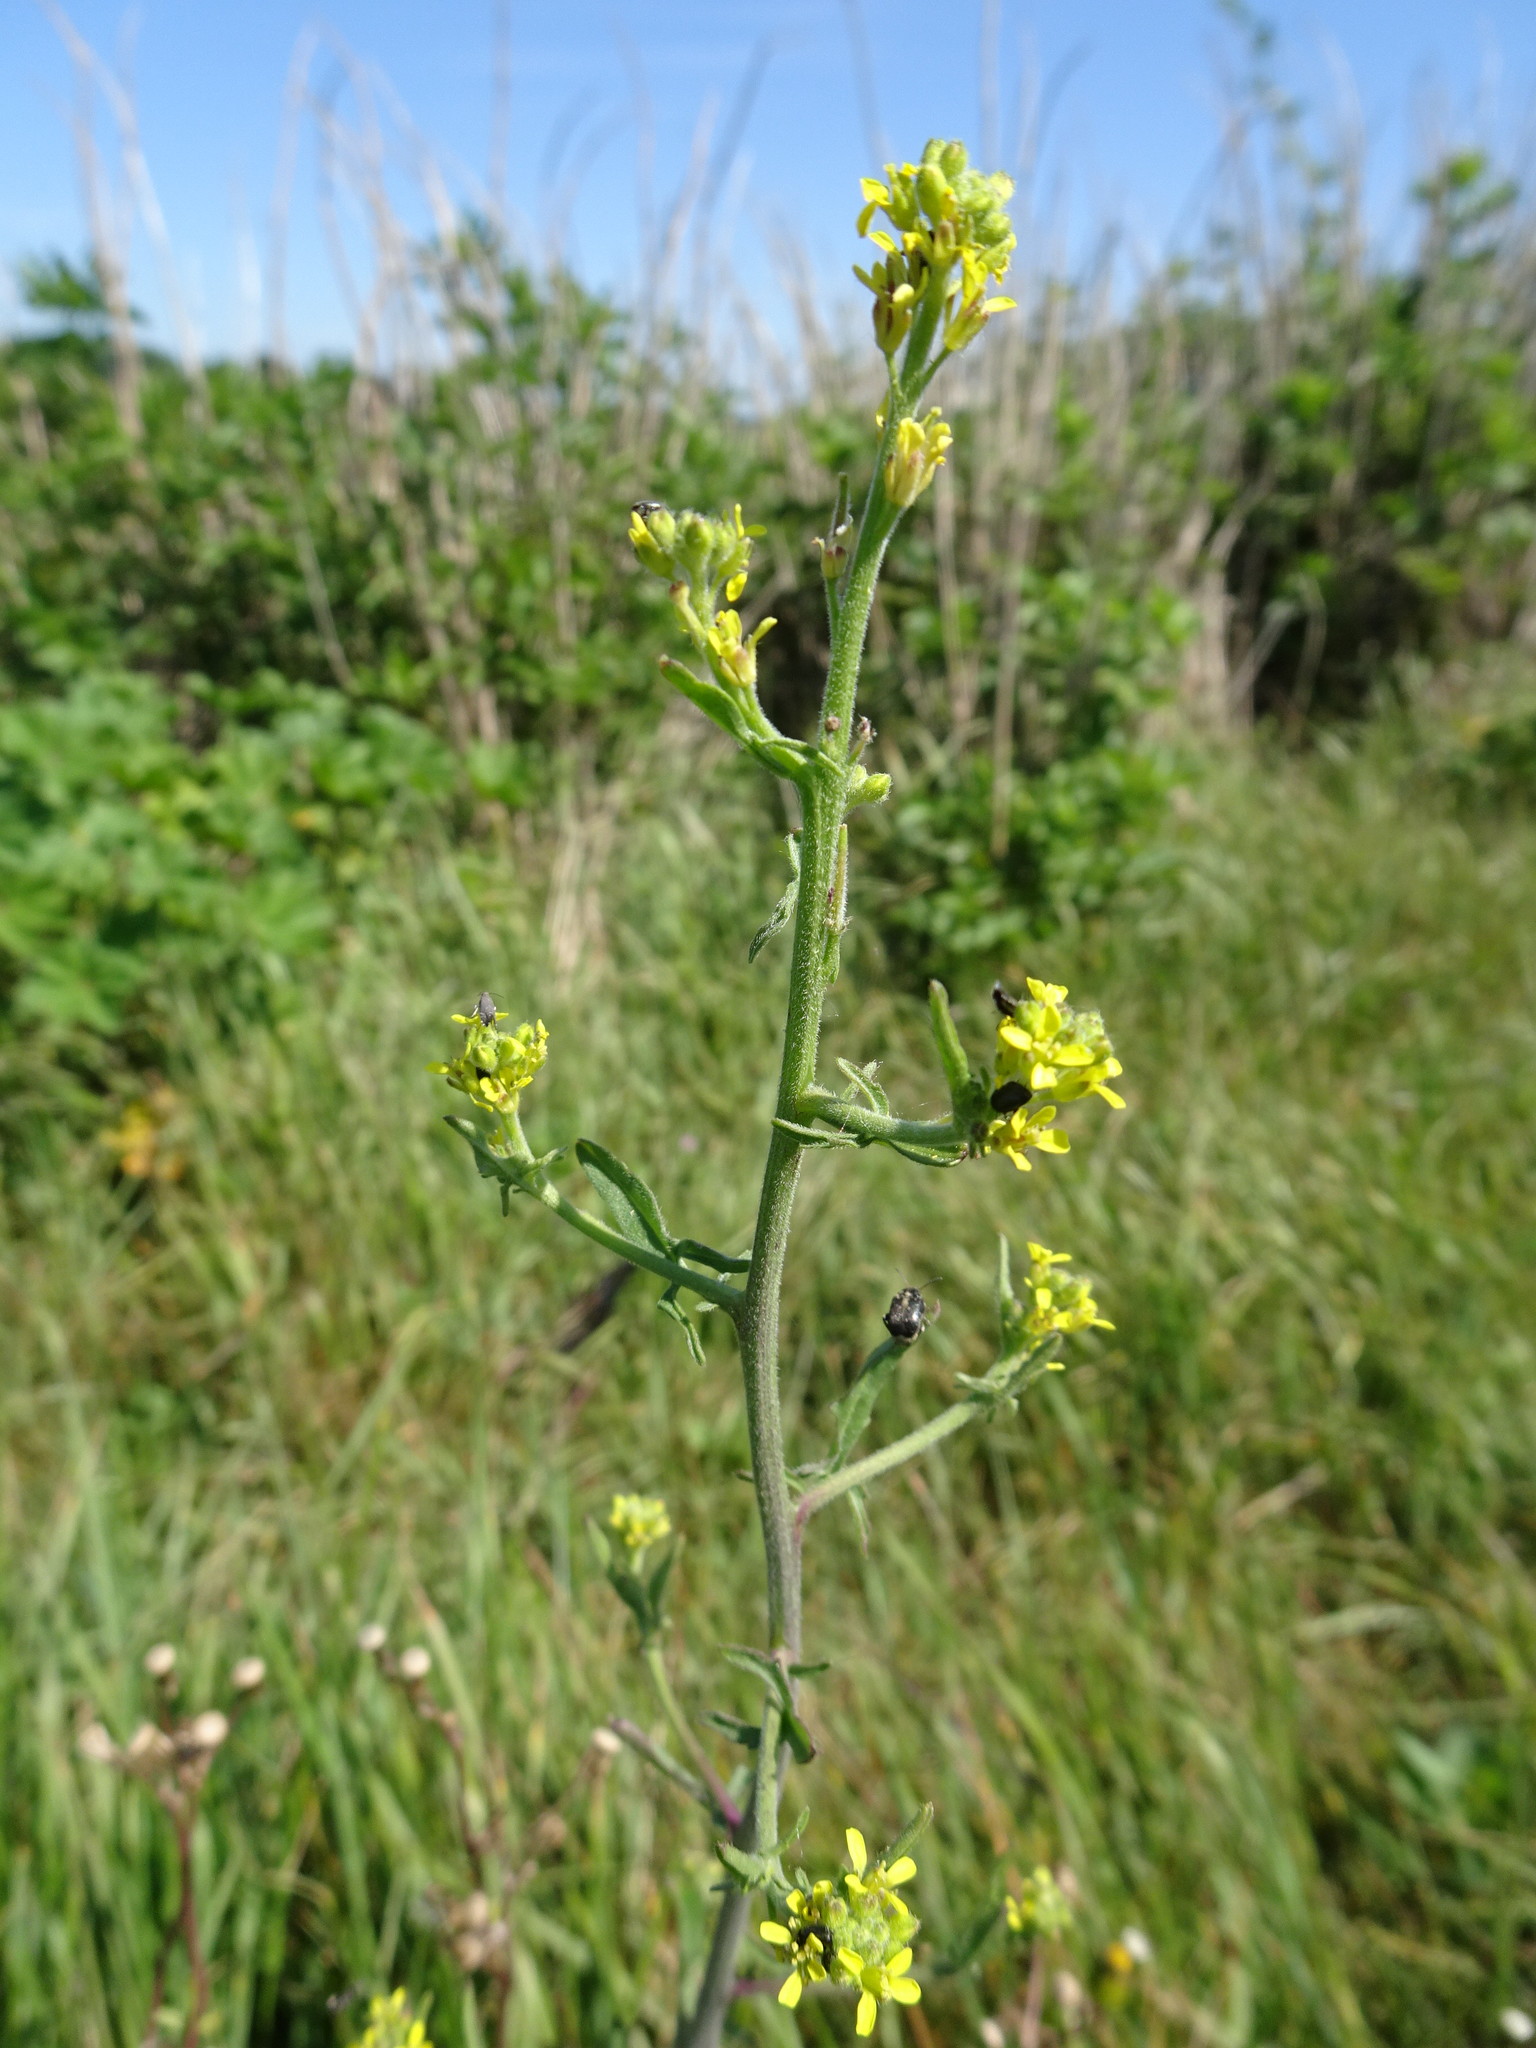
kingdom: Plantae
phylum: Tracheophyta
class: Magnoliopsida
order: Brassicales
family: Brassicaceae
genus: Sisymbrium
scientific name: Sisymbrium officinale
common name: Hedge mustard
